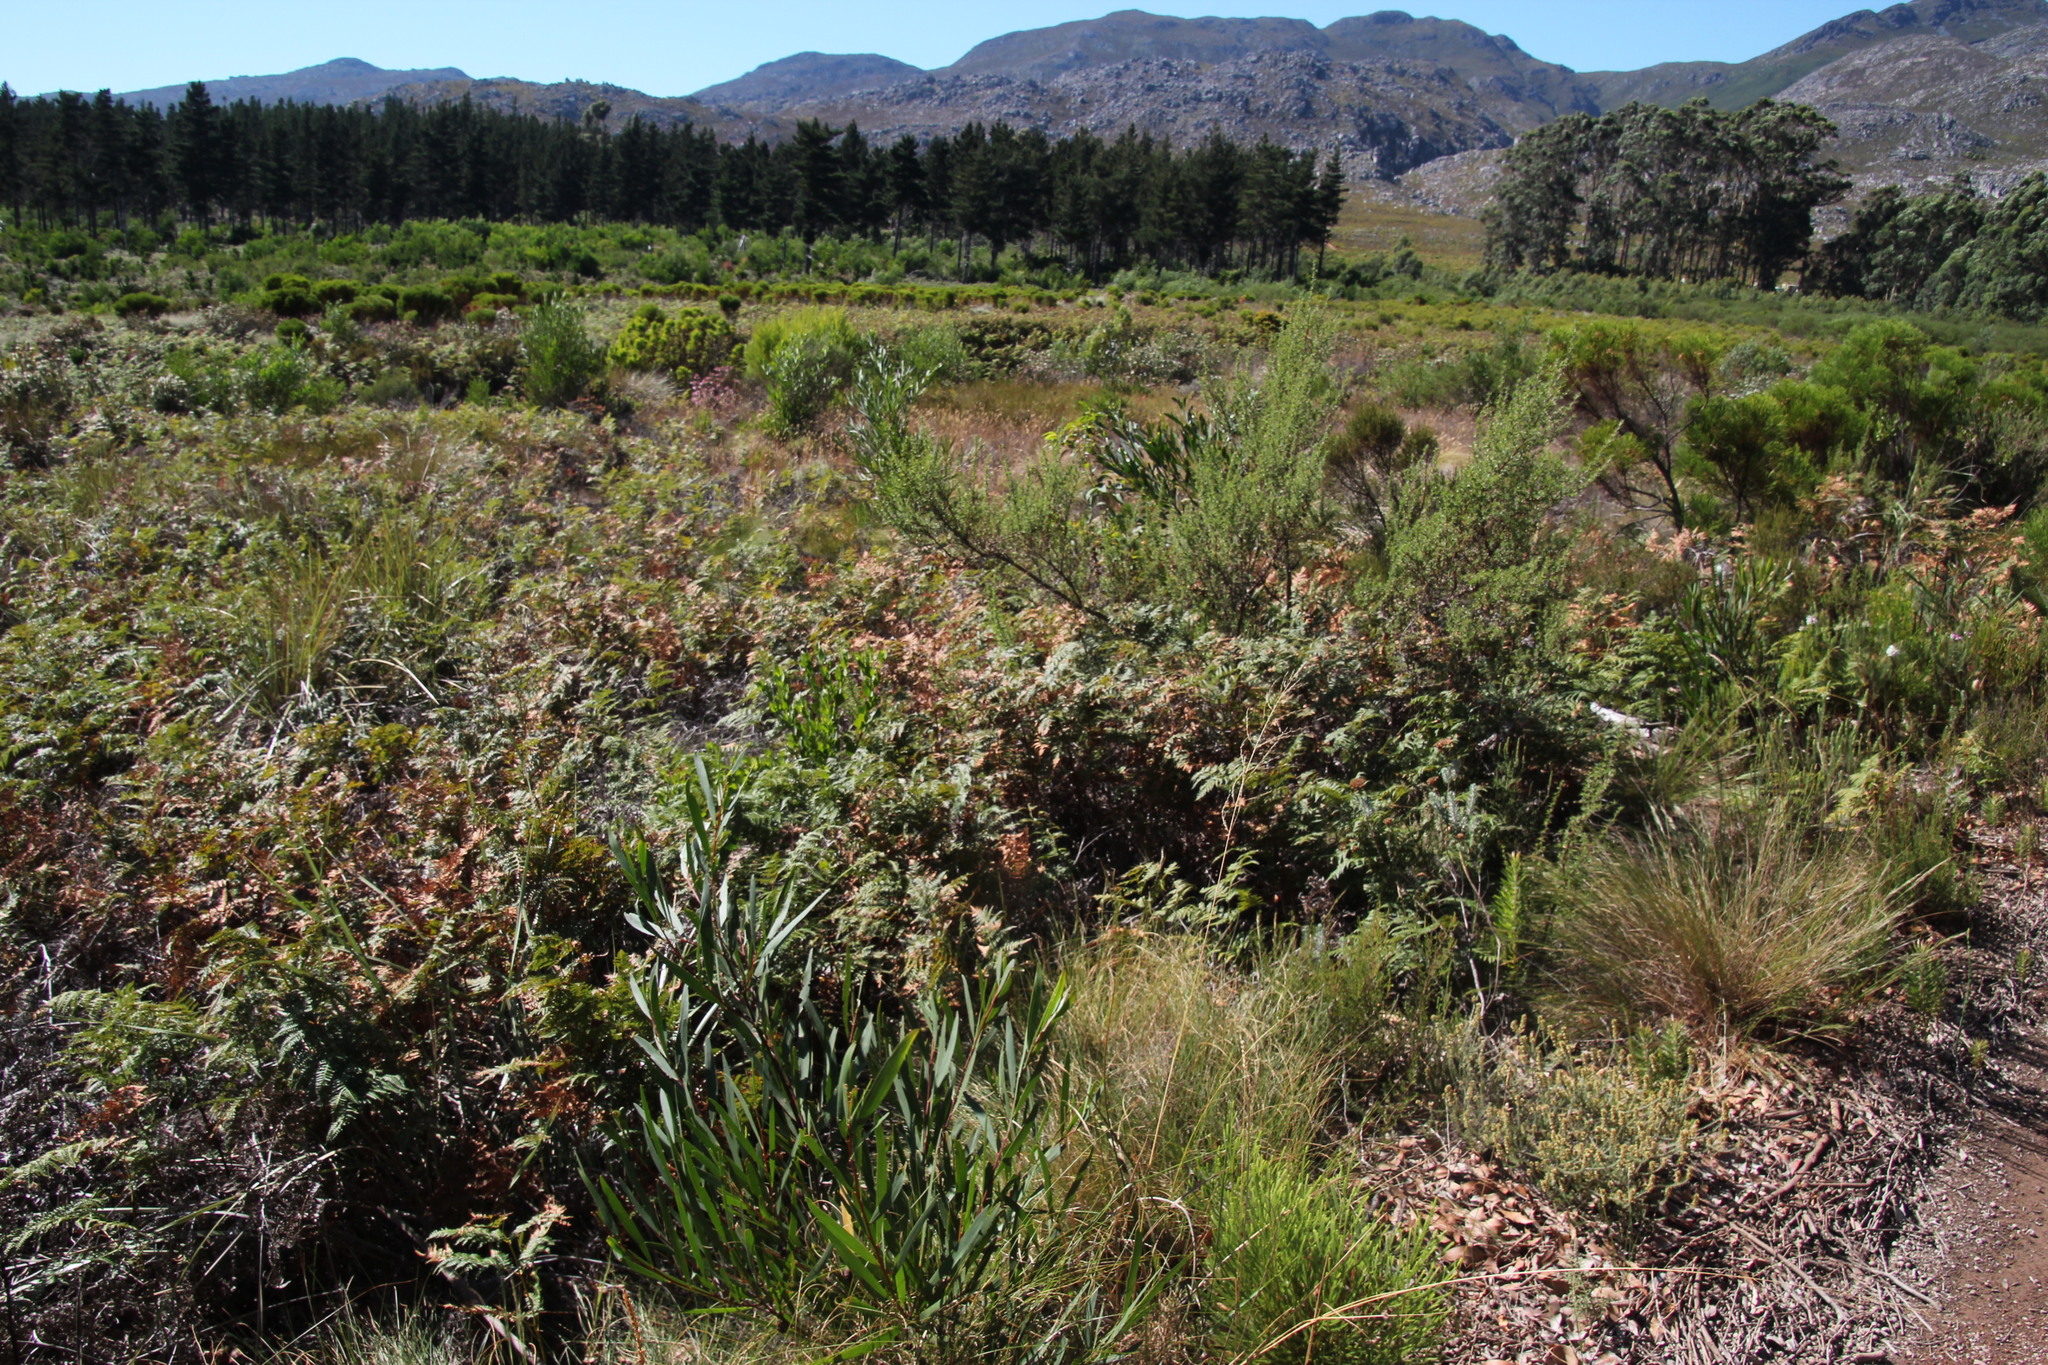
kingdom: Plantae
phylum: Tracheophyta
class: Polypodiopsida
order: Polypodiales
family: Dennstaedtiaceae
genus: Pteridium
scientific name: Pteridium aquilinum
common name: Bracken
